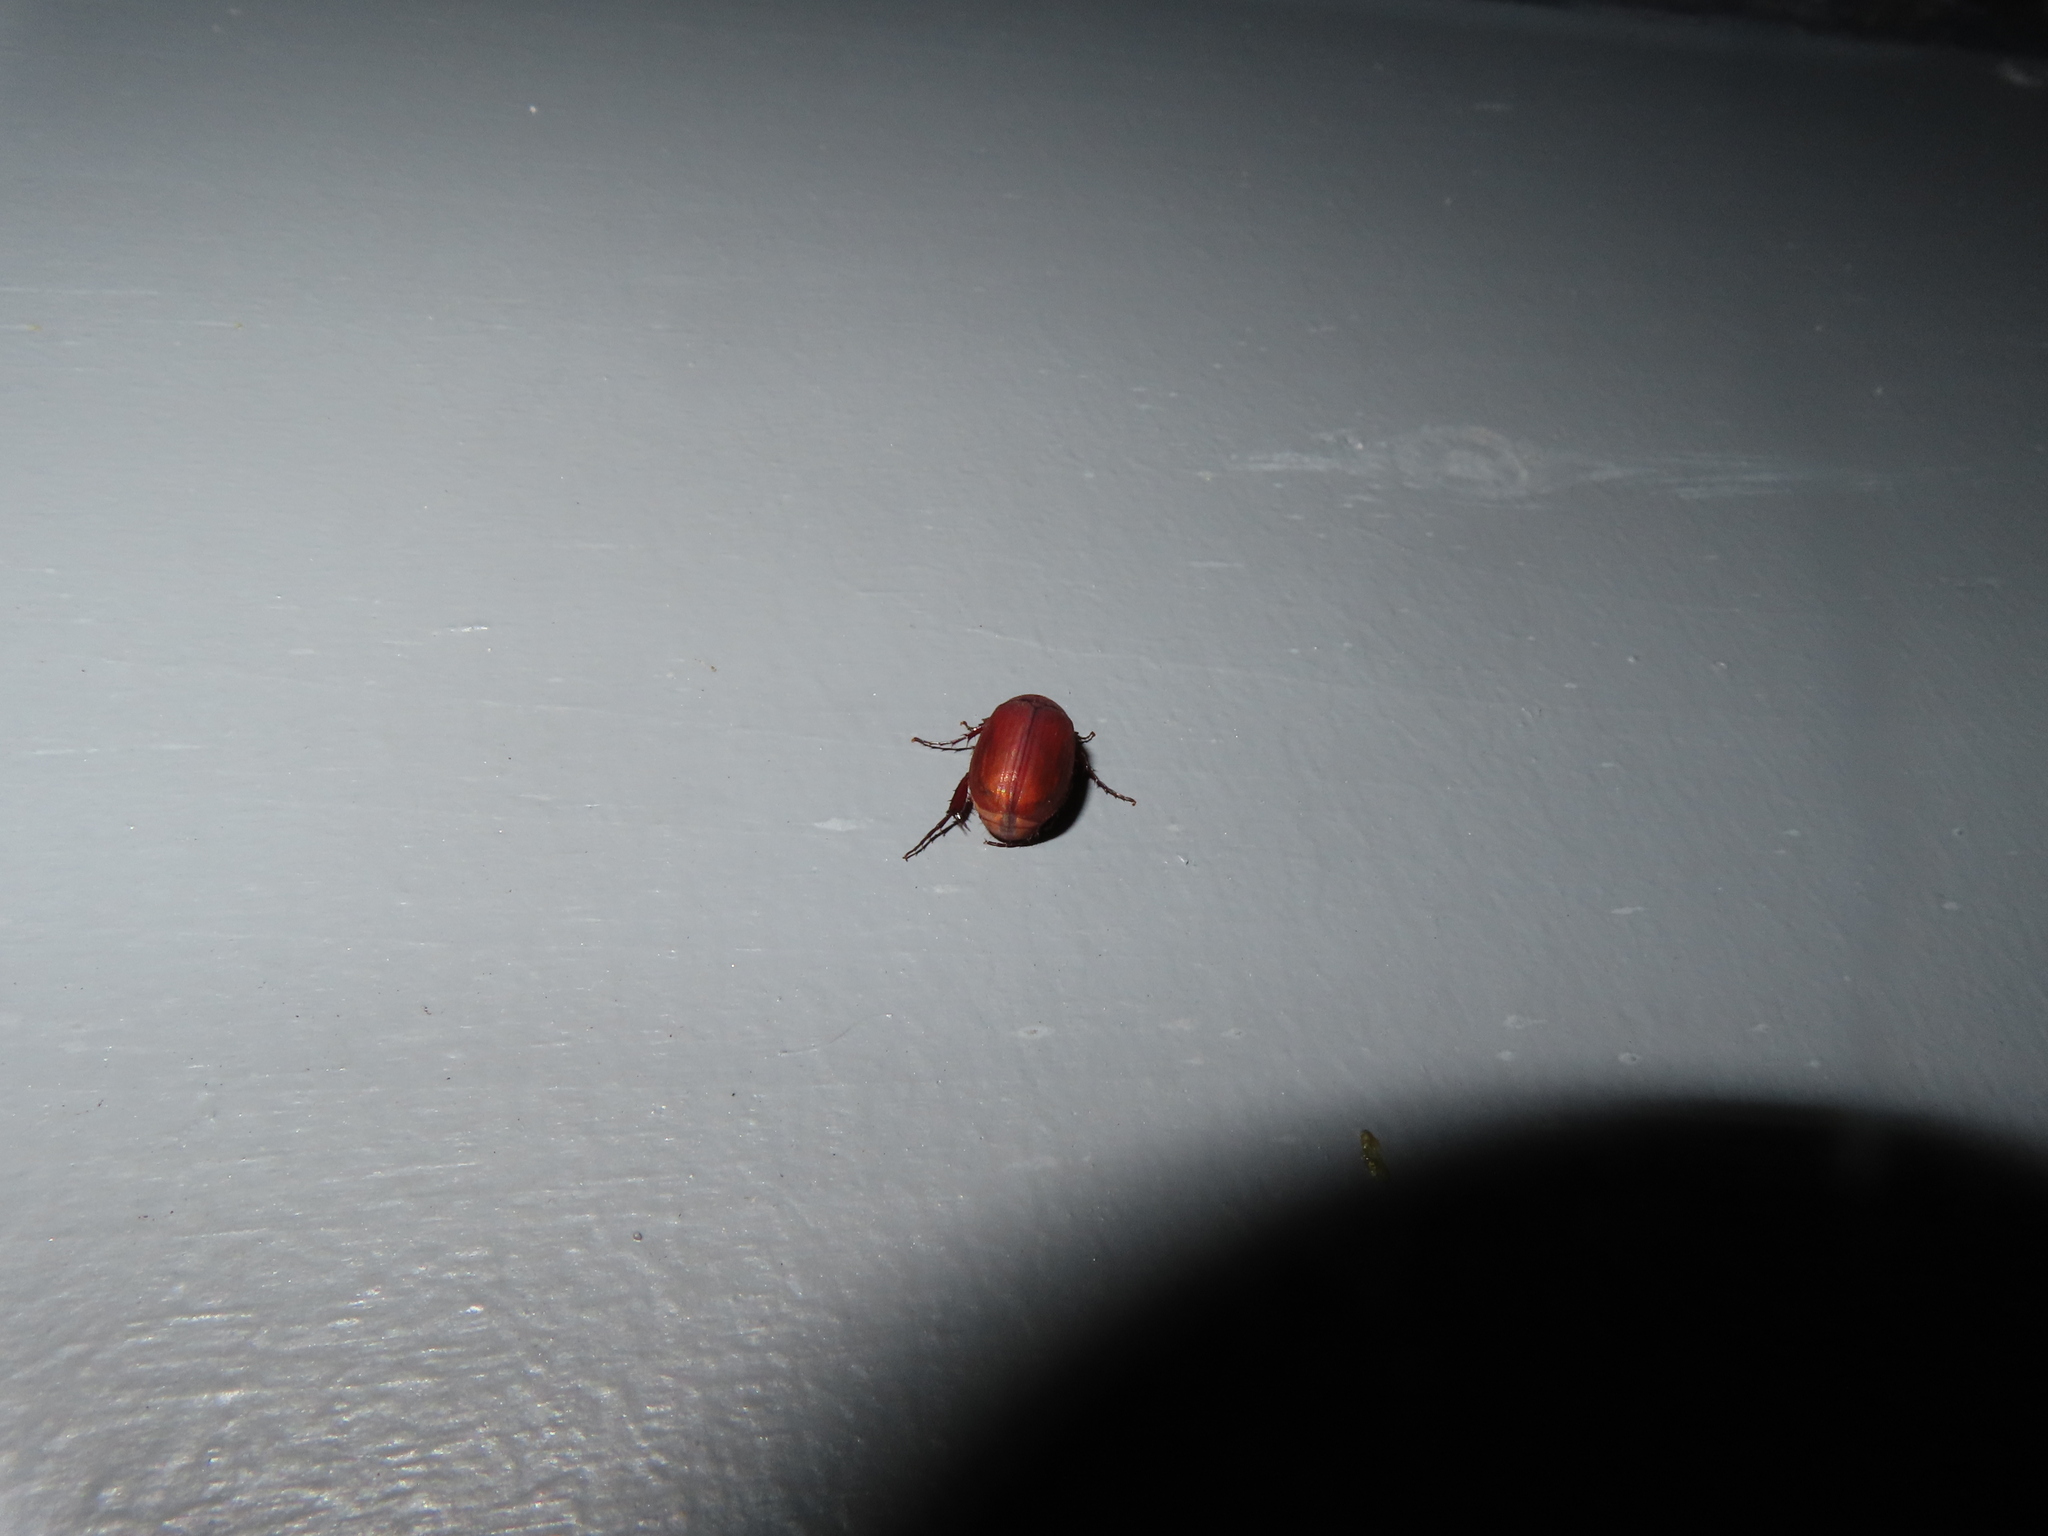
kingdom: Animalia
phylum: Arthropoda
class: Insecta
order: Coleoptera
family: Scarabaeidae
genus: Maladera
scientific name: Maladera formosae
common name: Asiatic garden beetle
